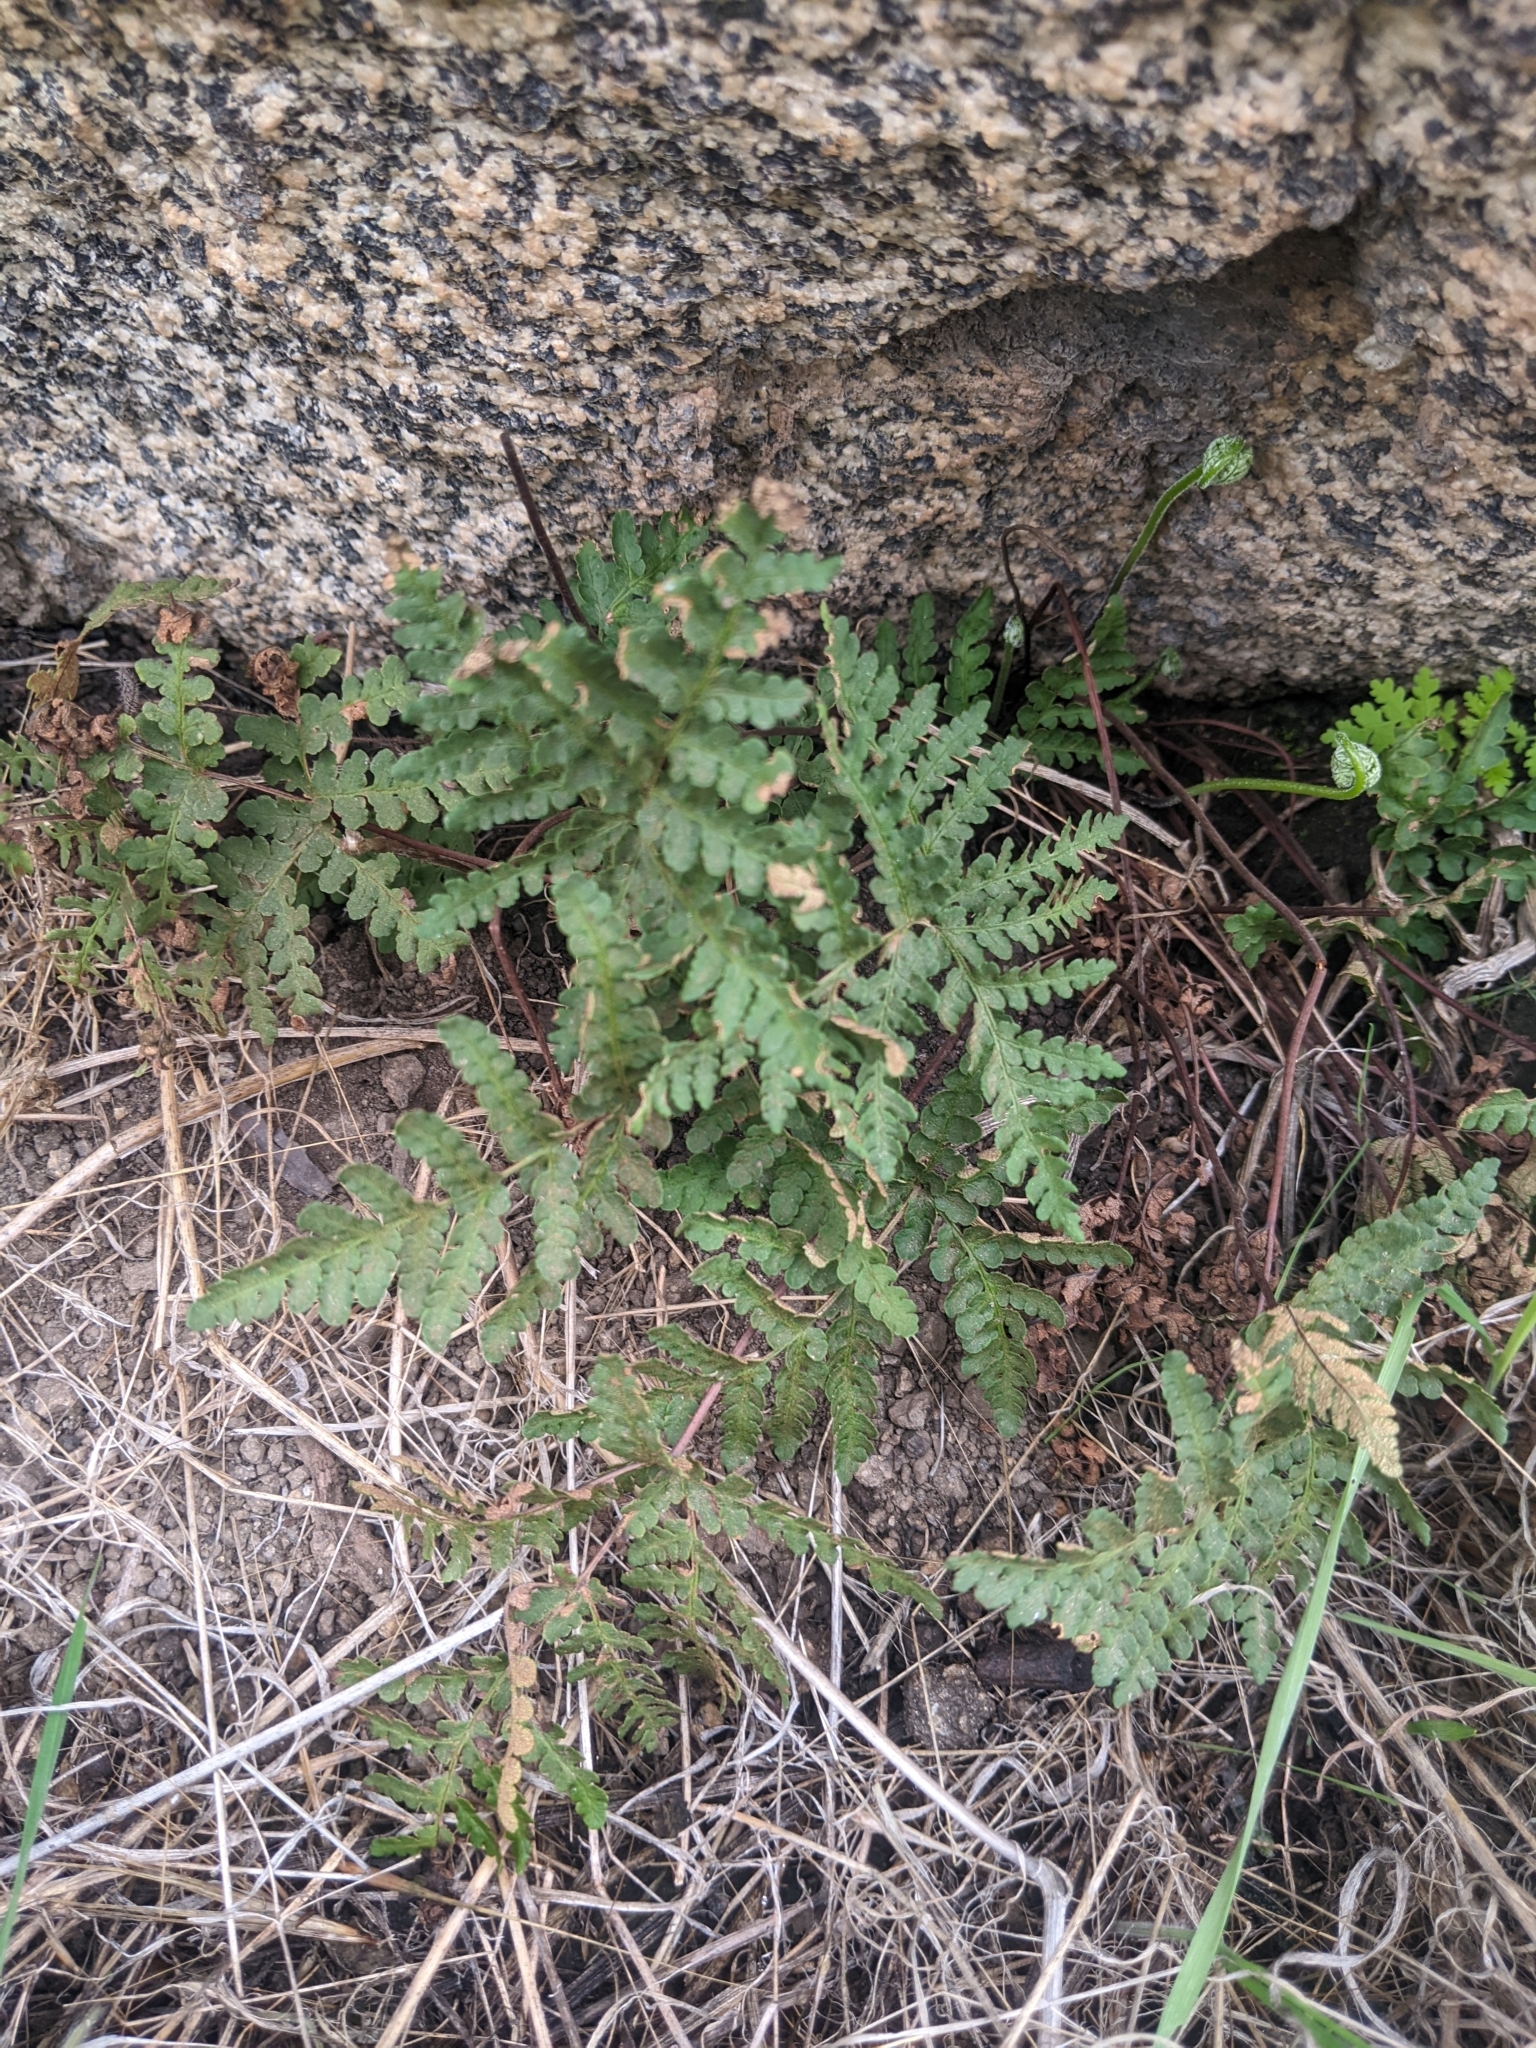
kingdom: Plantae
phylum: Tracheophyta
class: Polypodiopsida
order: Polypodiales
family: Pteridaceae
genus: Pentagramma
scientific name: Pentagramma triangularis
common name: Gold fern
